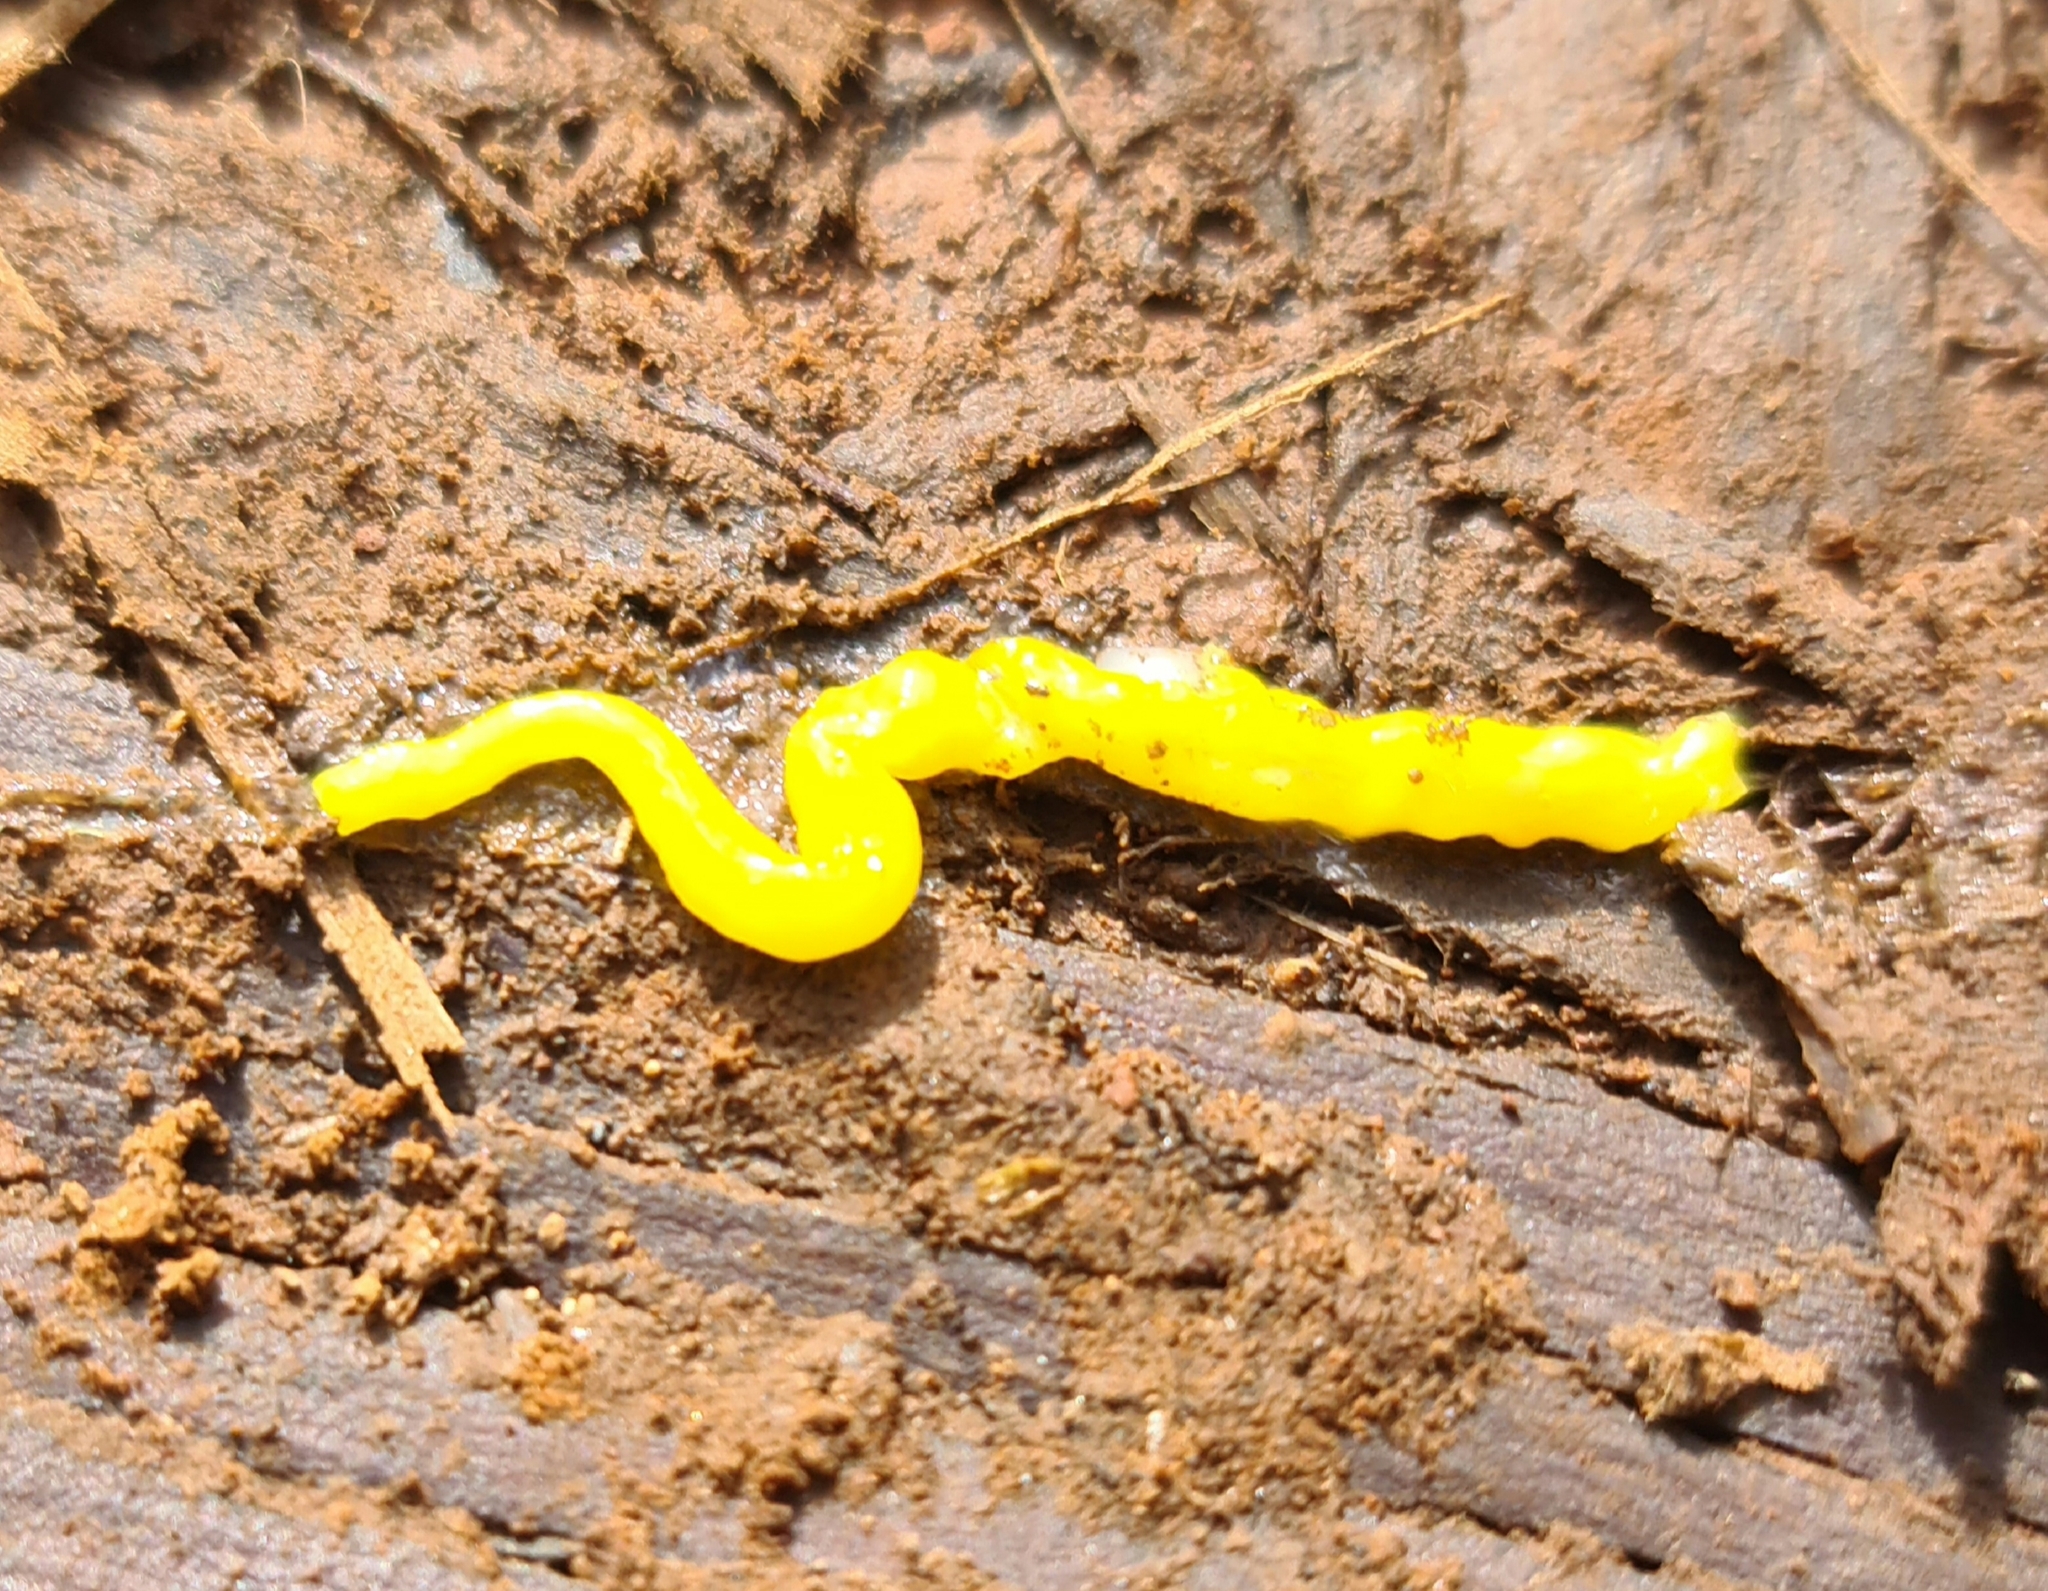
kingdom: Animalia
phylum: Platyhelminthes
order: Tricladida
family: Geoplanidae
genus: Fletchamia
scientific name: Fletchamia sugdeni
